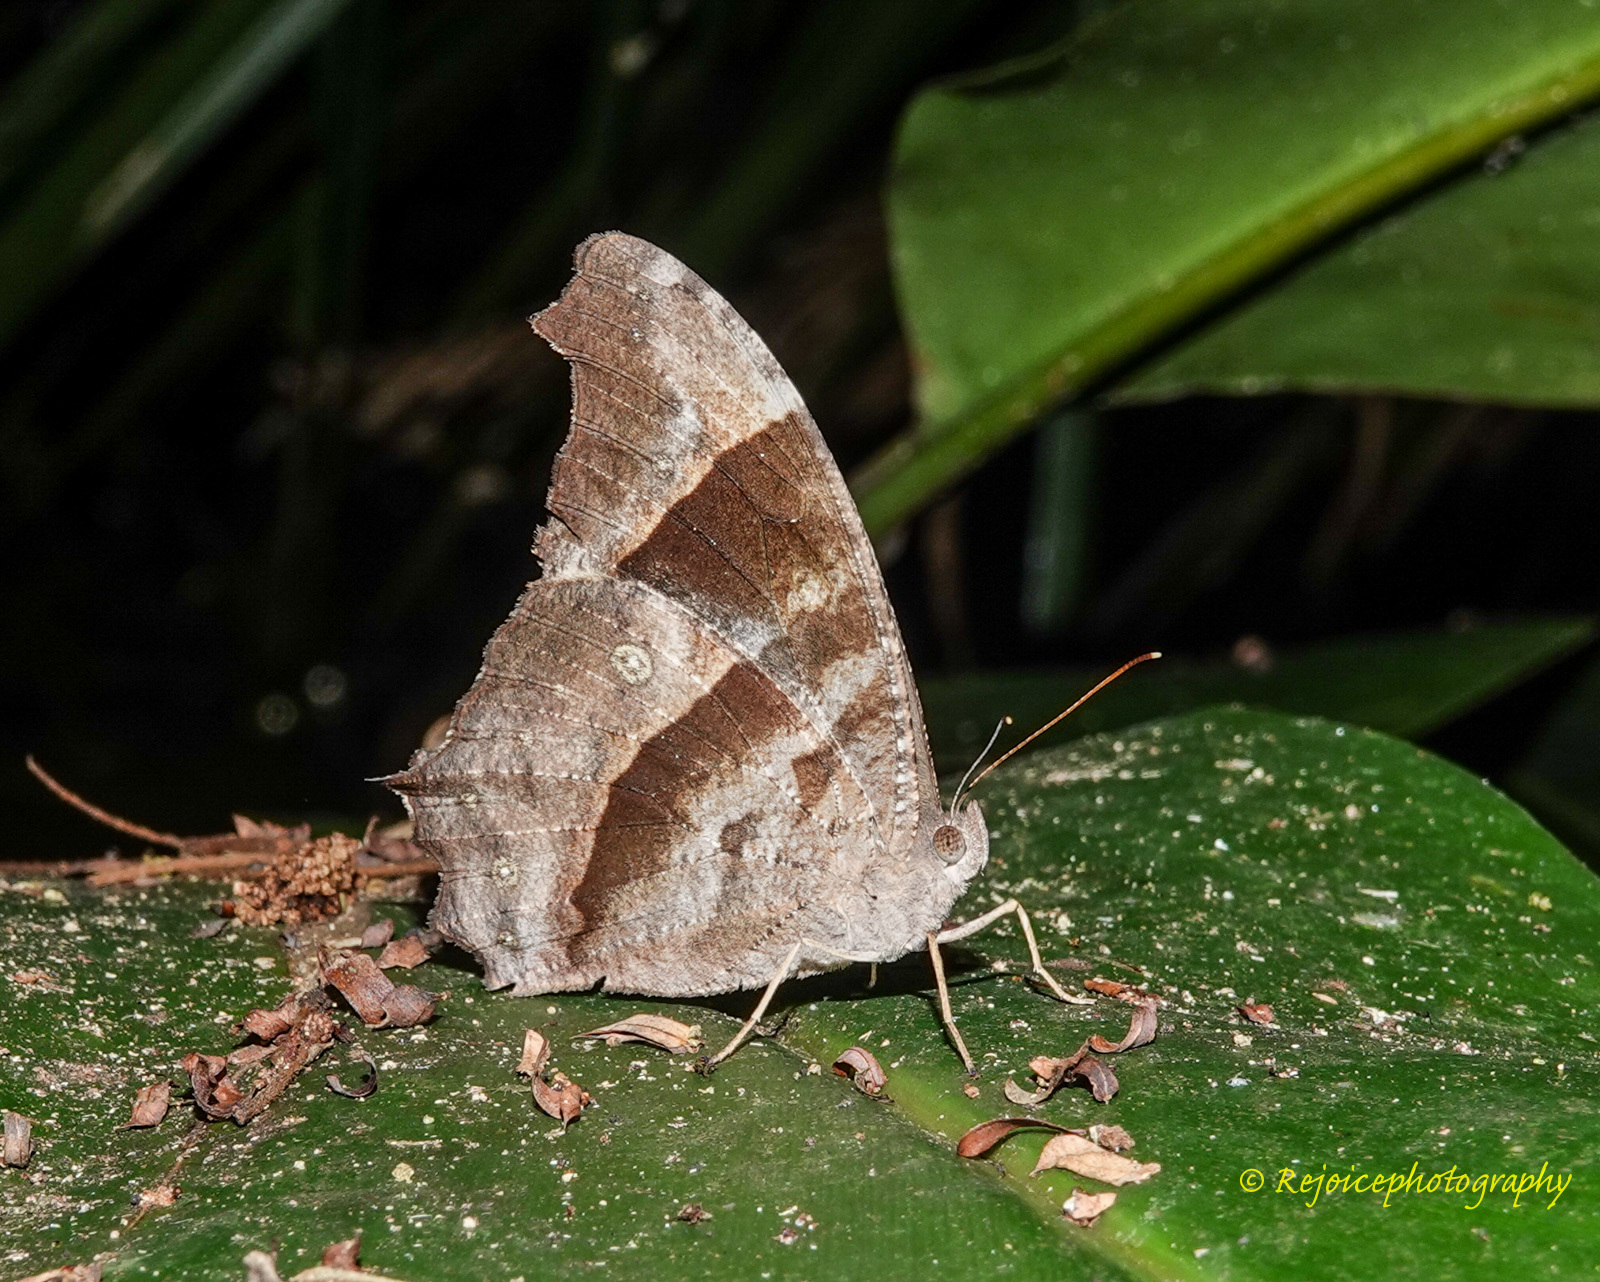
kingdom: Animalia
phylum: Arthropoda
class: Insecta
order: Lepidoptera
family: Nymphalidae
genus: Melanitis
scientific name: Melanitis leda
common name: Twilight brown
